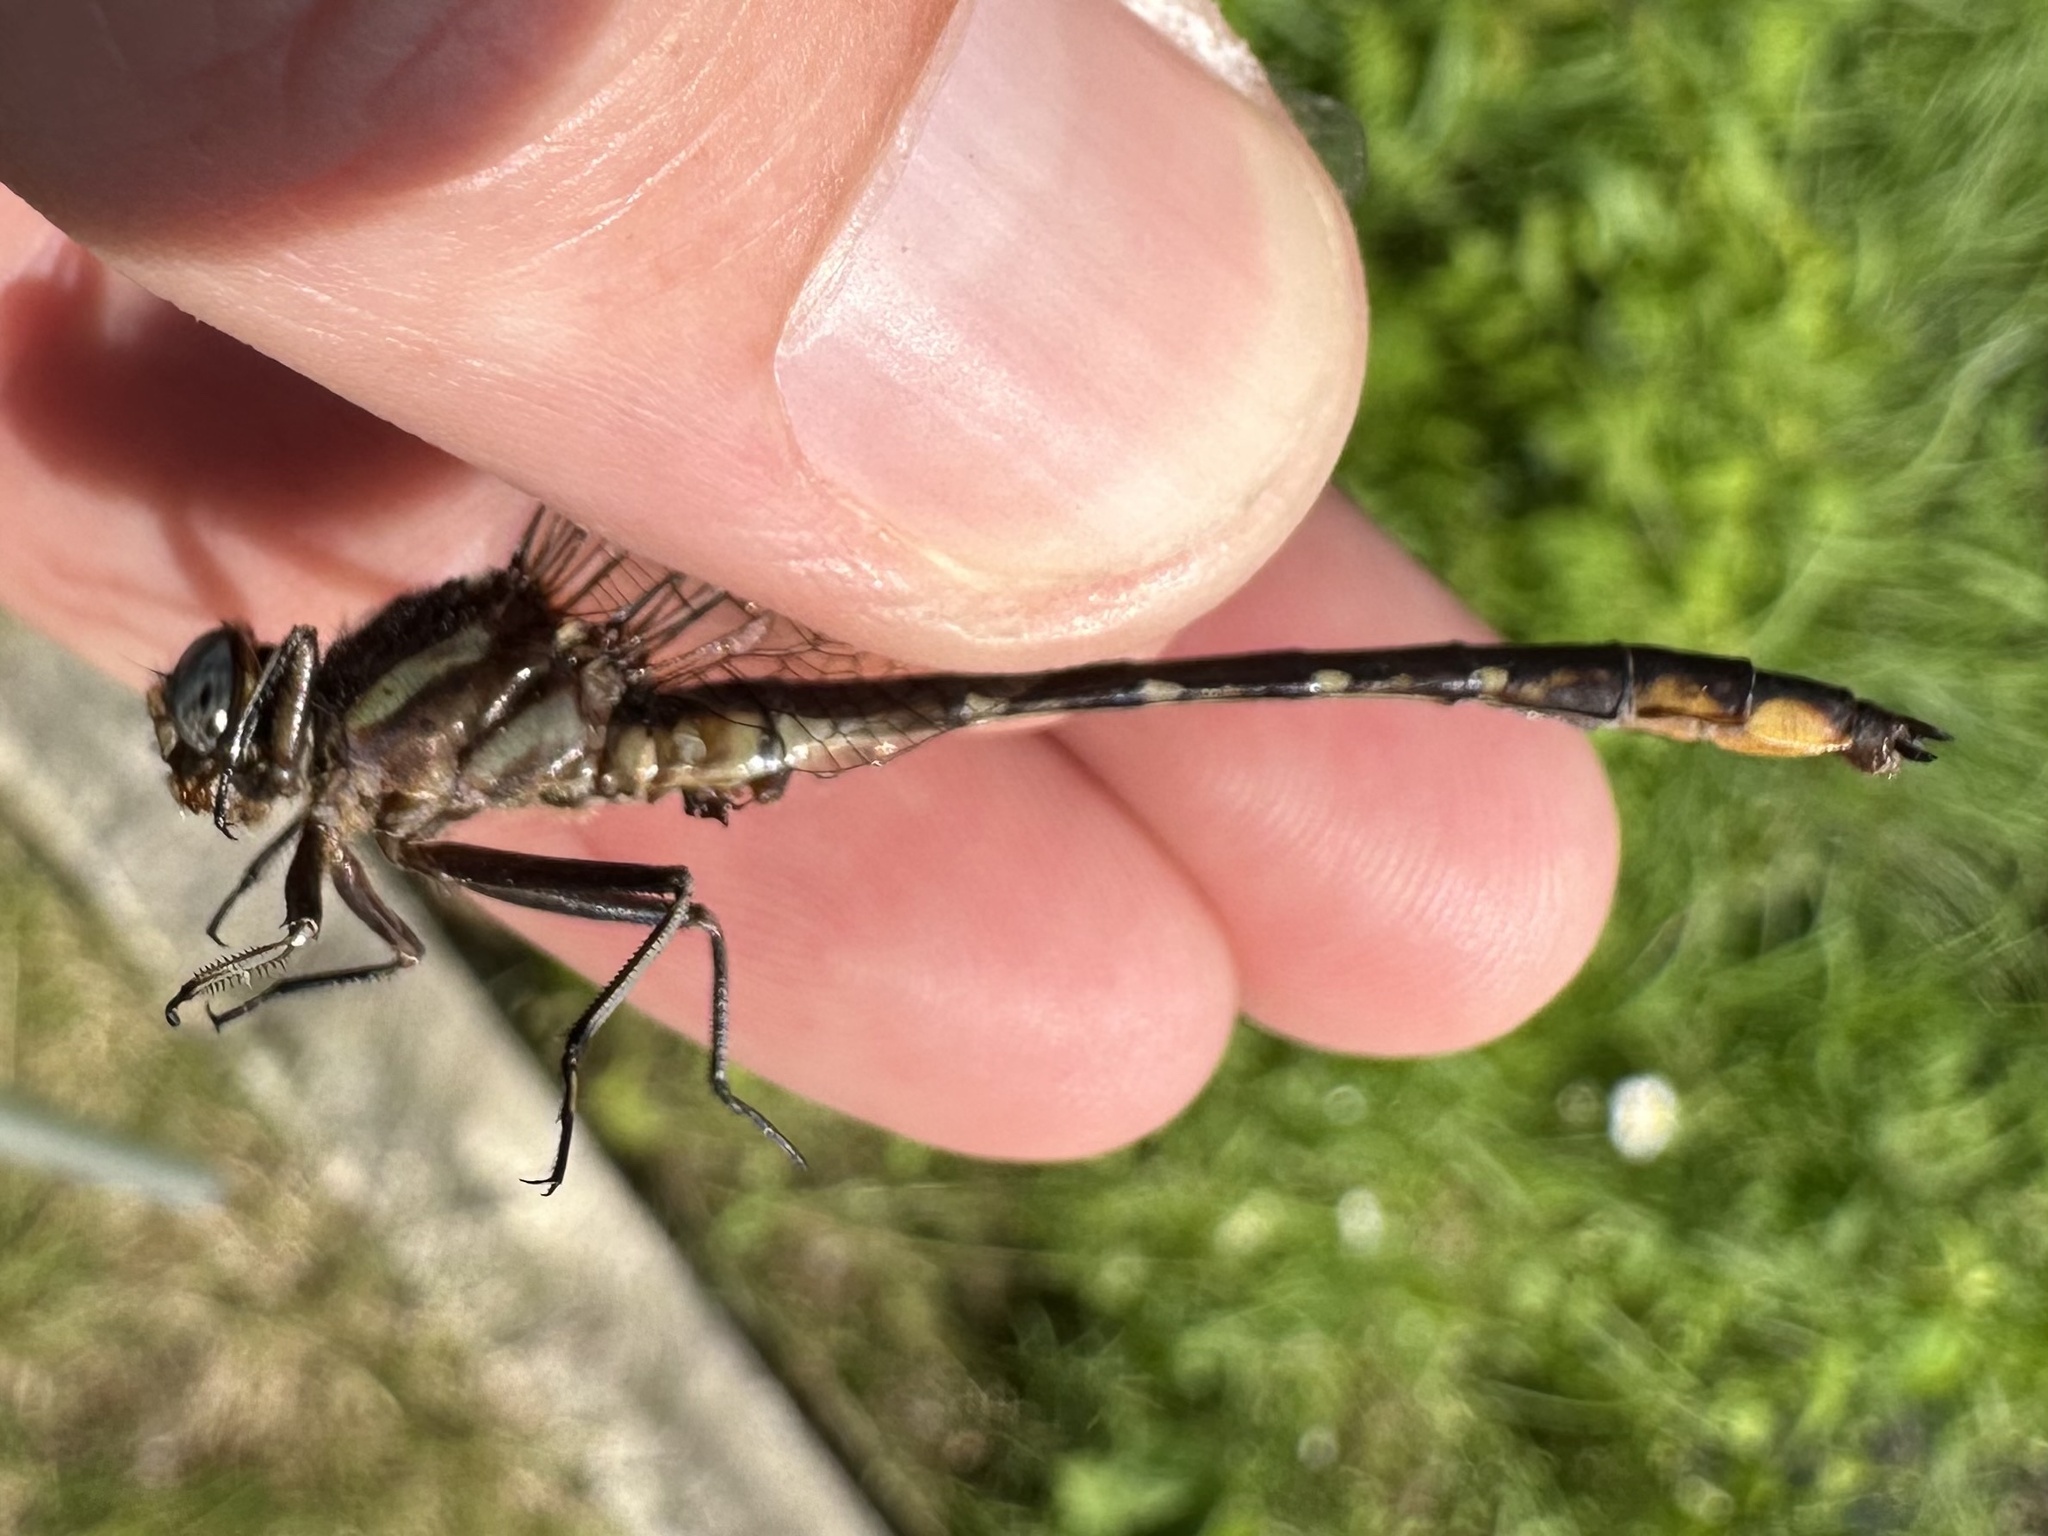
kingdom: Animalia
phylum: Arthropoda
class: Insecta
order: Odonata
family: Gomphidae
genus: Phanogomphus
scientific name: Phanogomphus exilis
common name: Lancet clubtail
